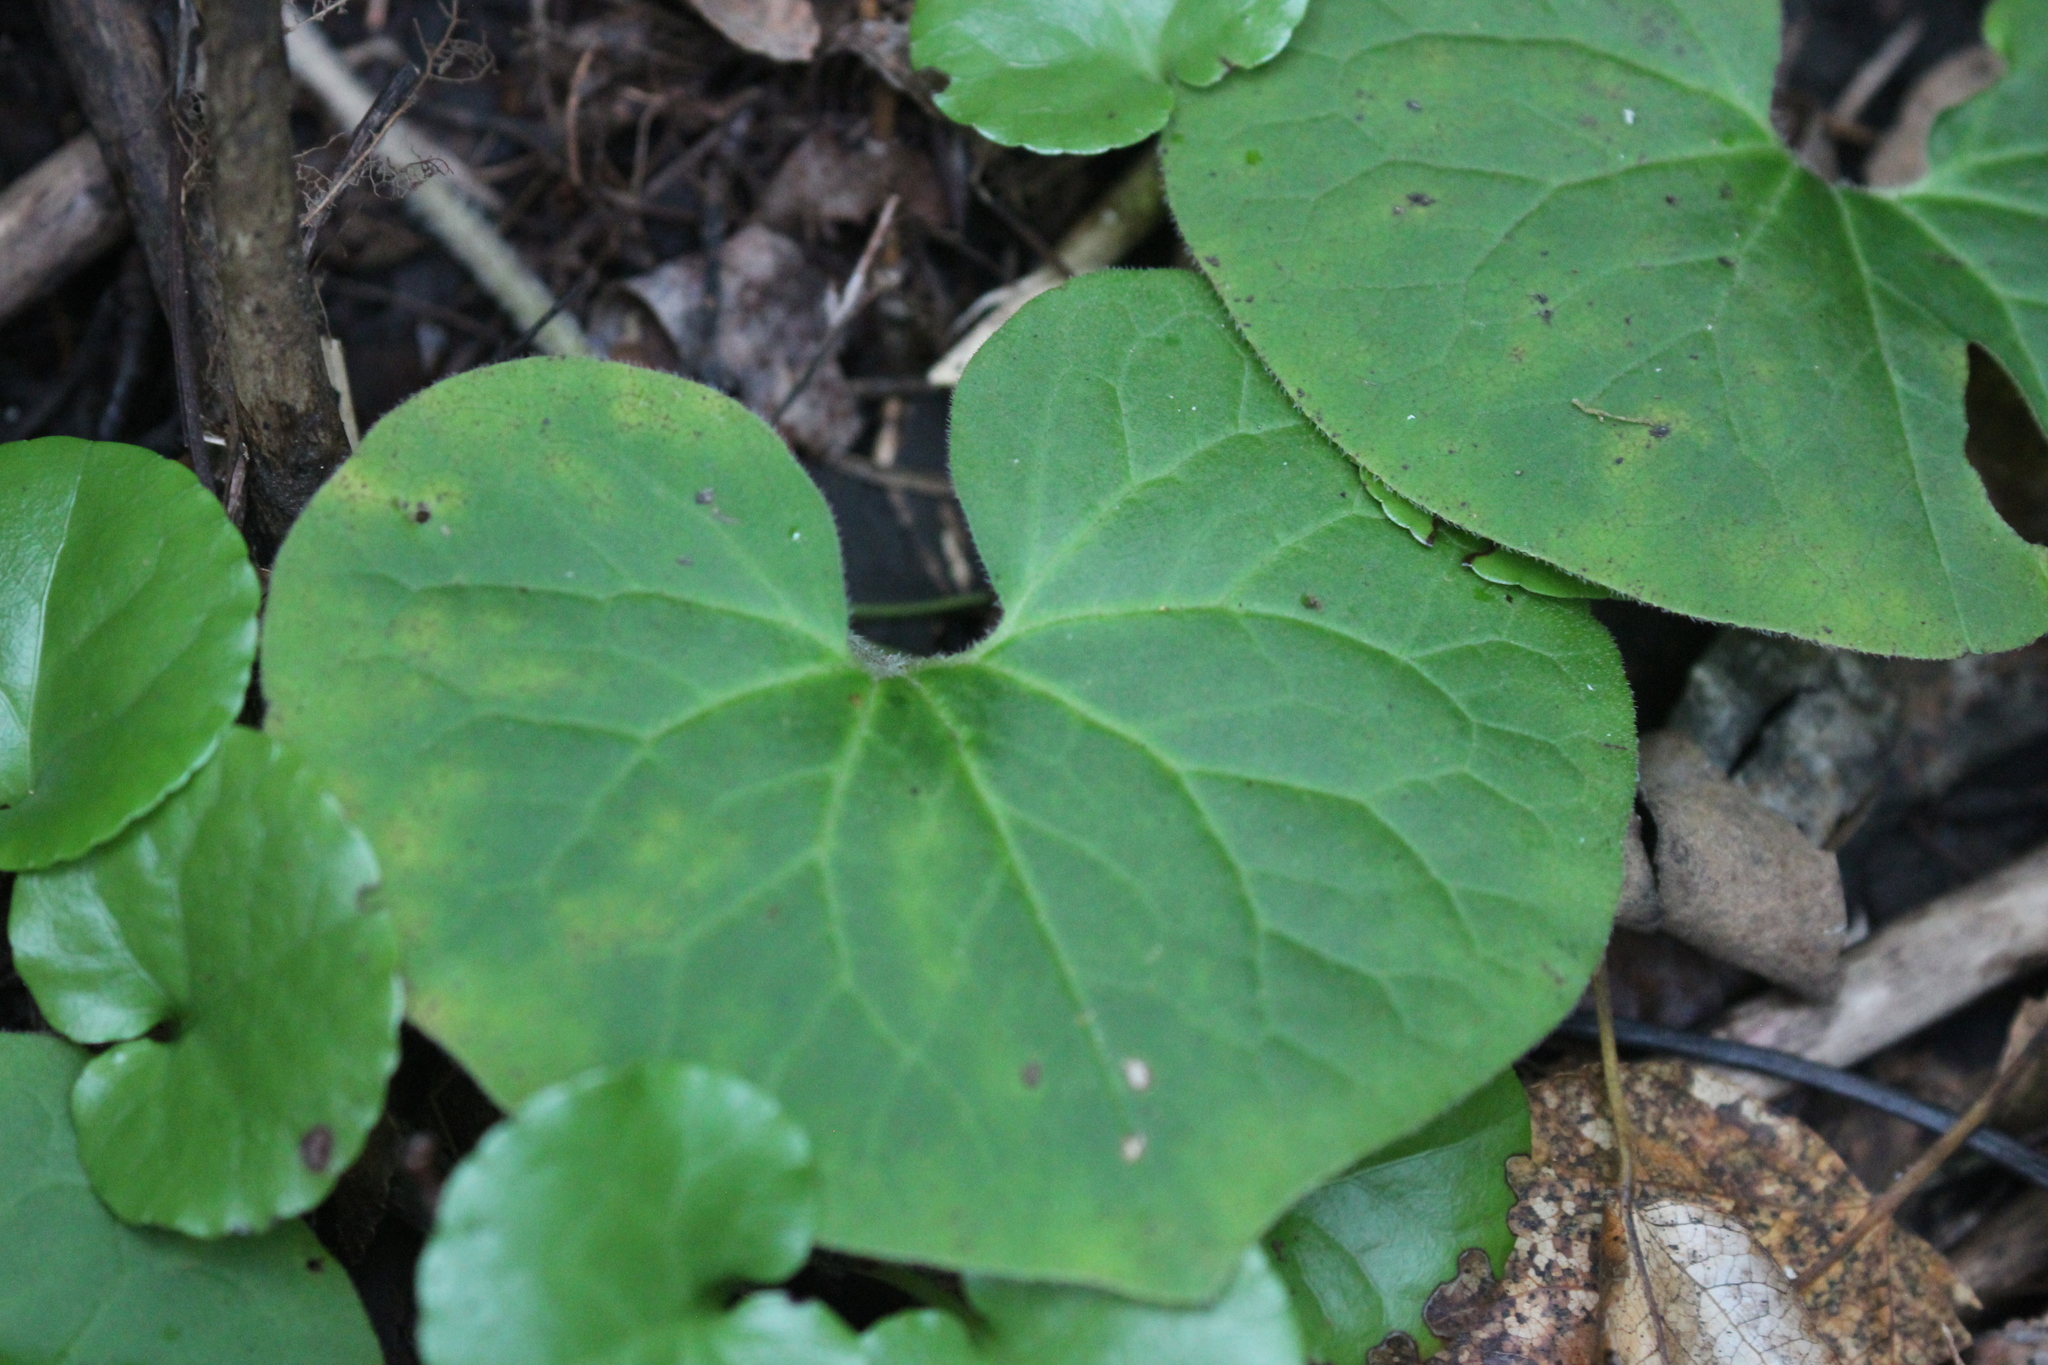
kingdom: Plantae
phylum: Tracheophyta
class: Magnoliopsida
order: Piperales
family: Aristolochiaceae
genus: Asarum
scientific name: Asarum canadense
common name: Wild ginger
